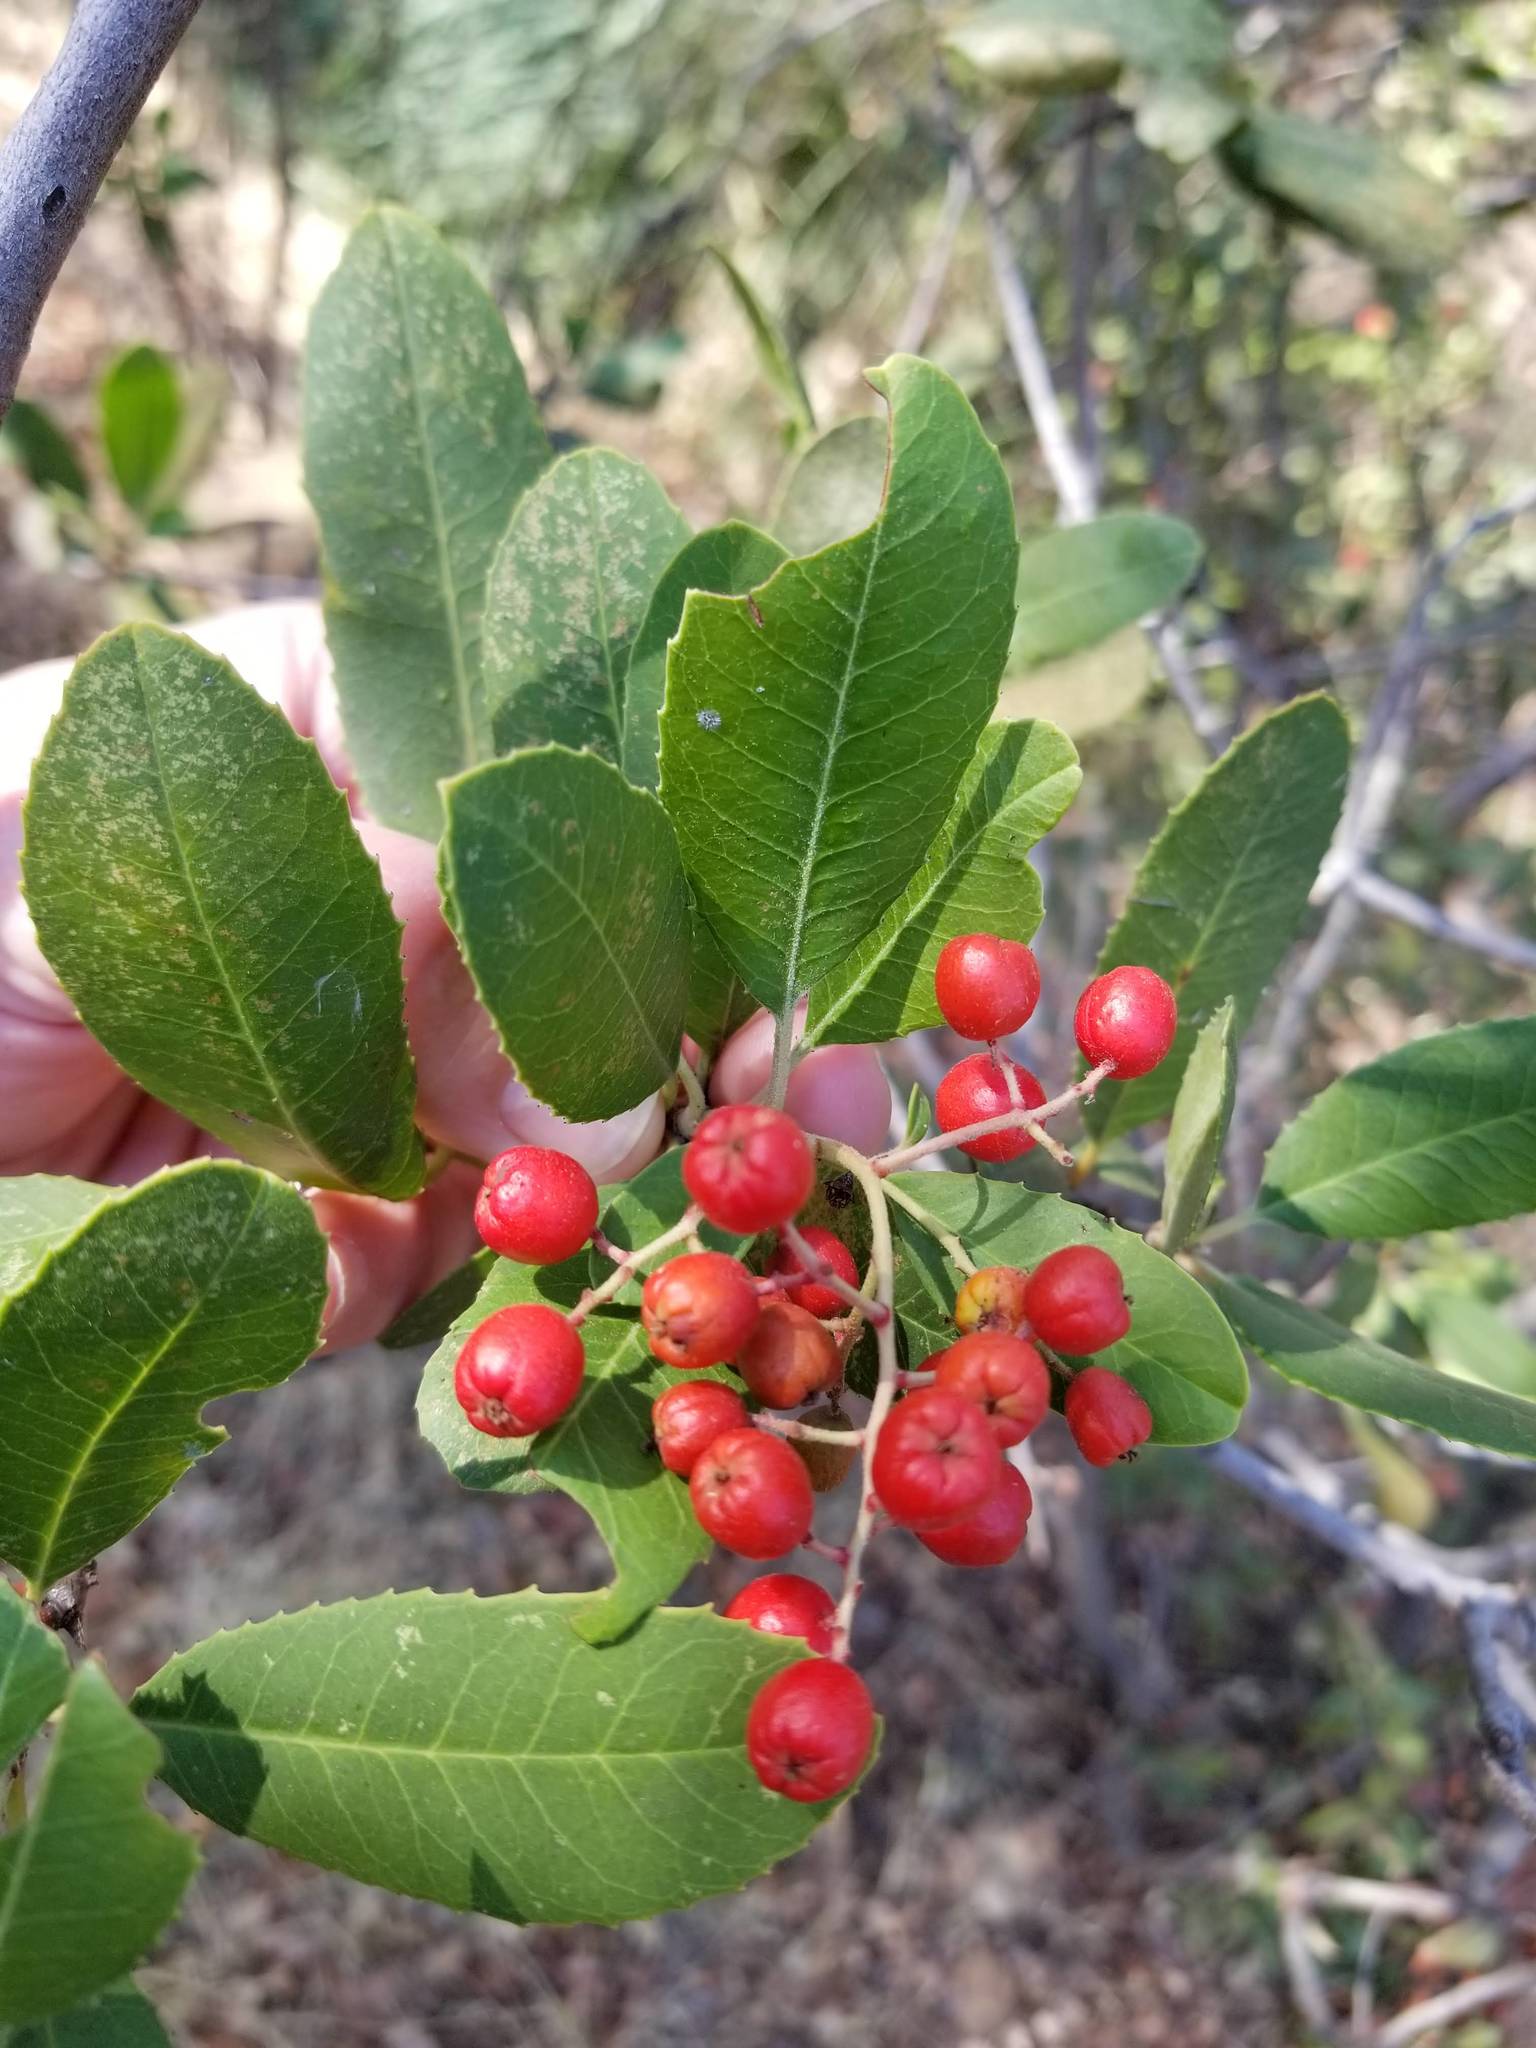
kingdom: Plantae
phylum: Tracheophyta
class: Magnoliopsida
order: Rosales
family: Rosaceae
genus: Heteromeles
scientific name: Heteromeles arbutifolia
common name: California-holly
